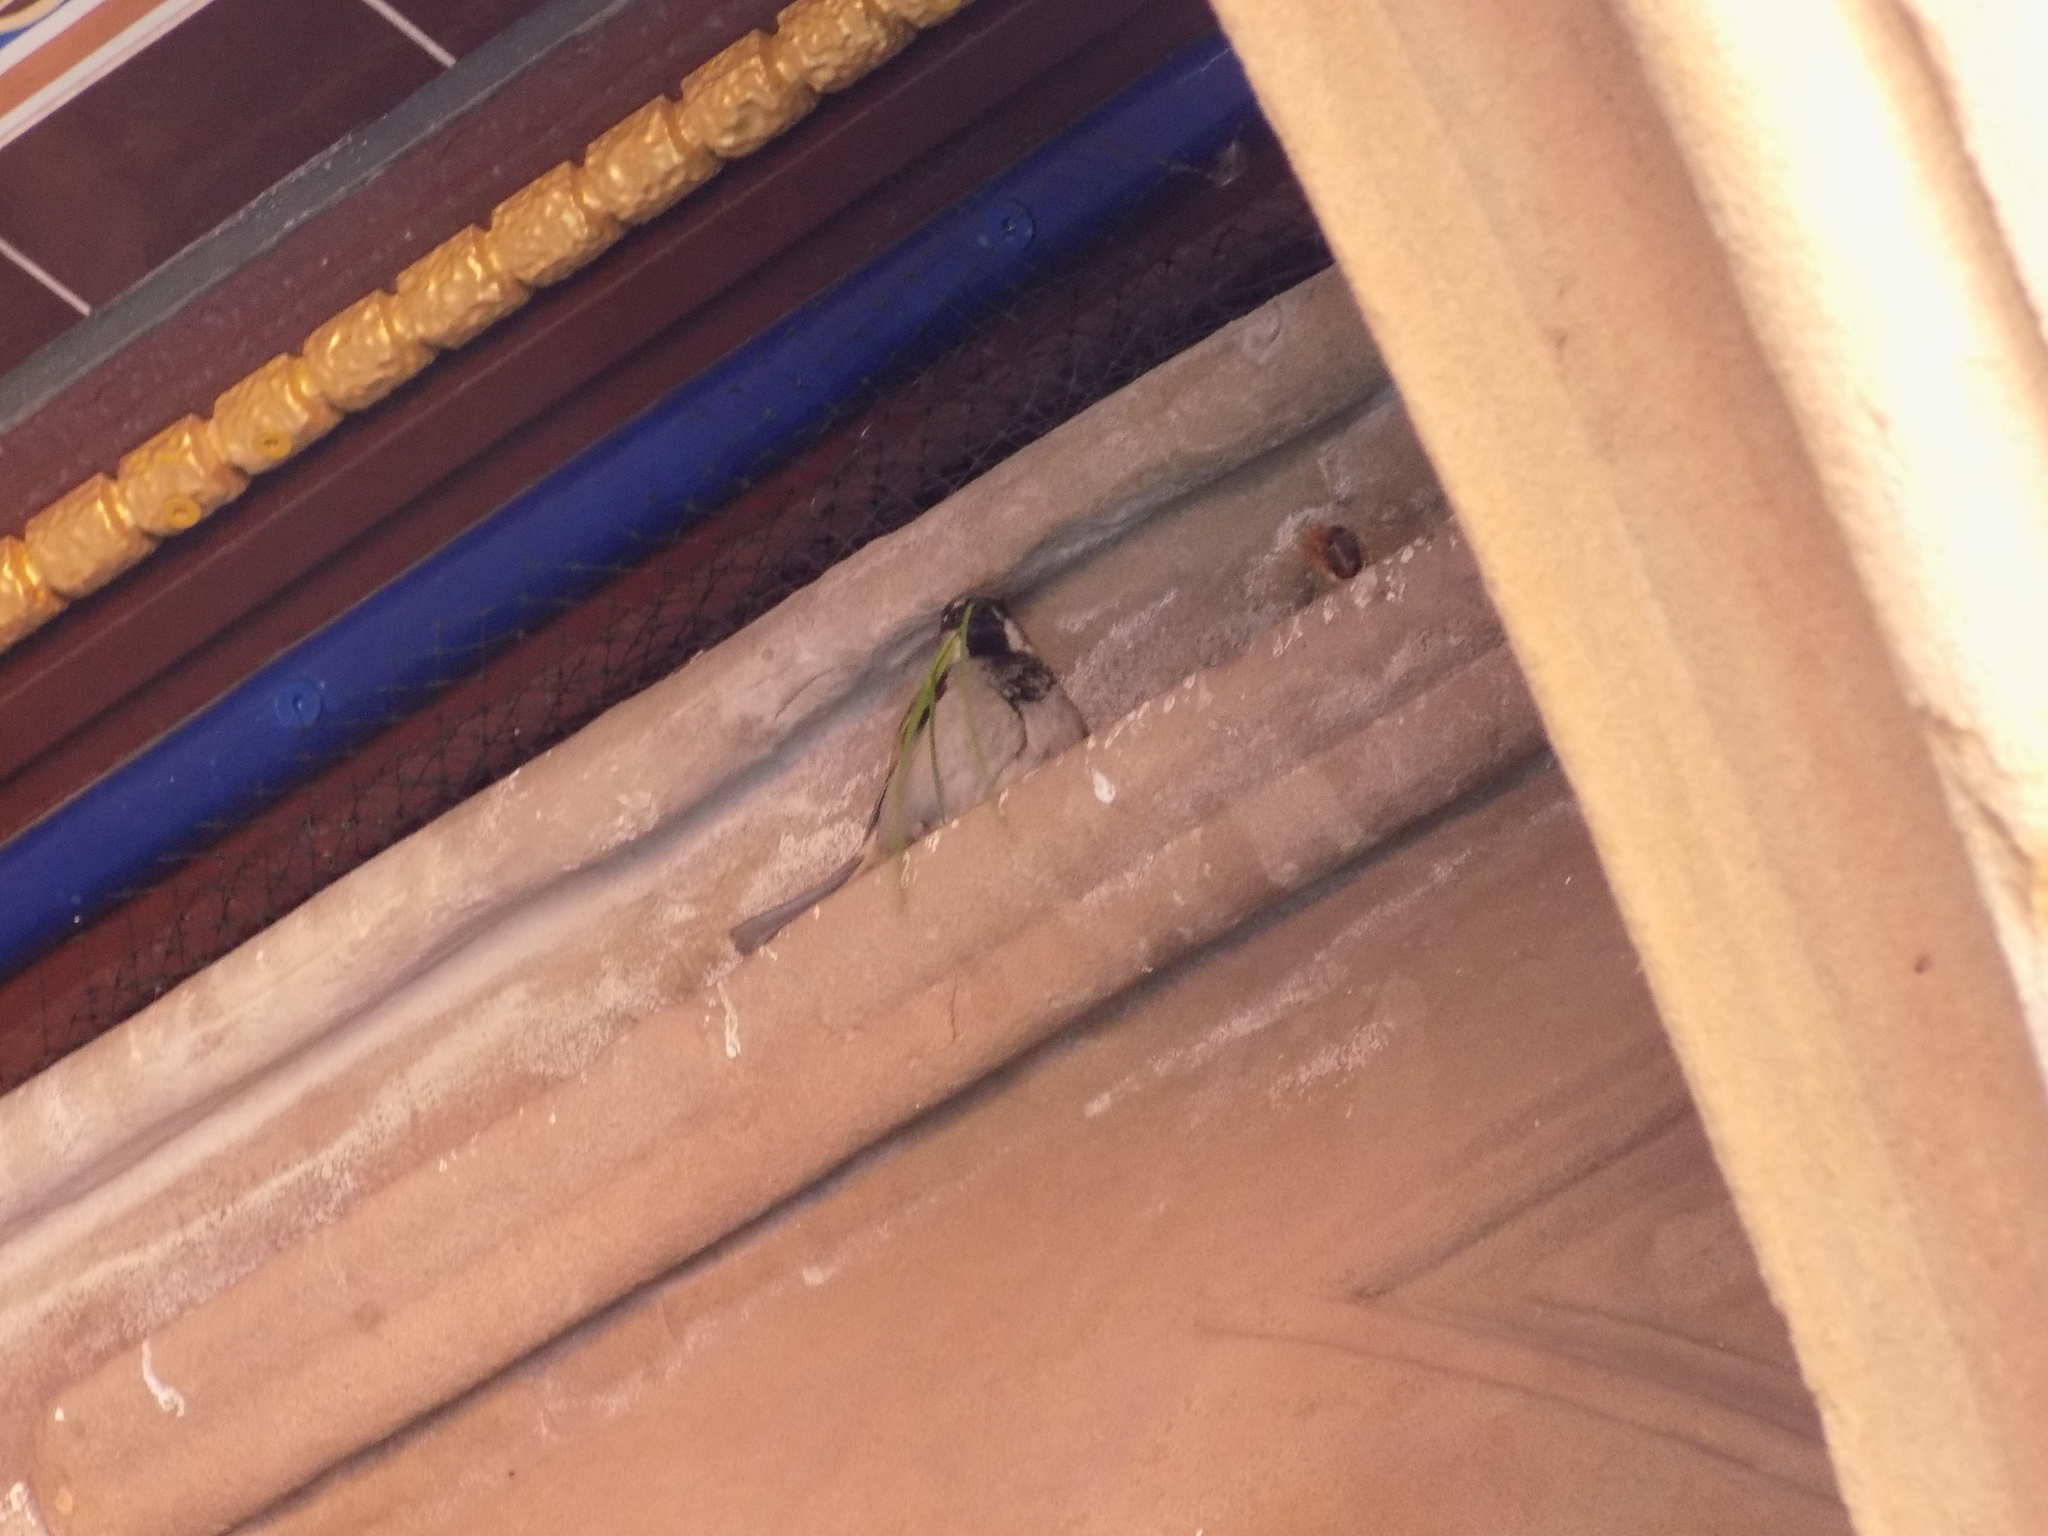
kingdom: Animalia
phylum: Chordata
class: Aves
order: Passeriformes
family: Passeridae
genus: Passer
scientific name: Passer domesticus
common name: House sparrow
